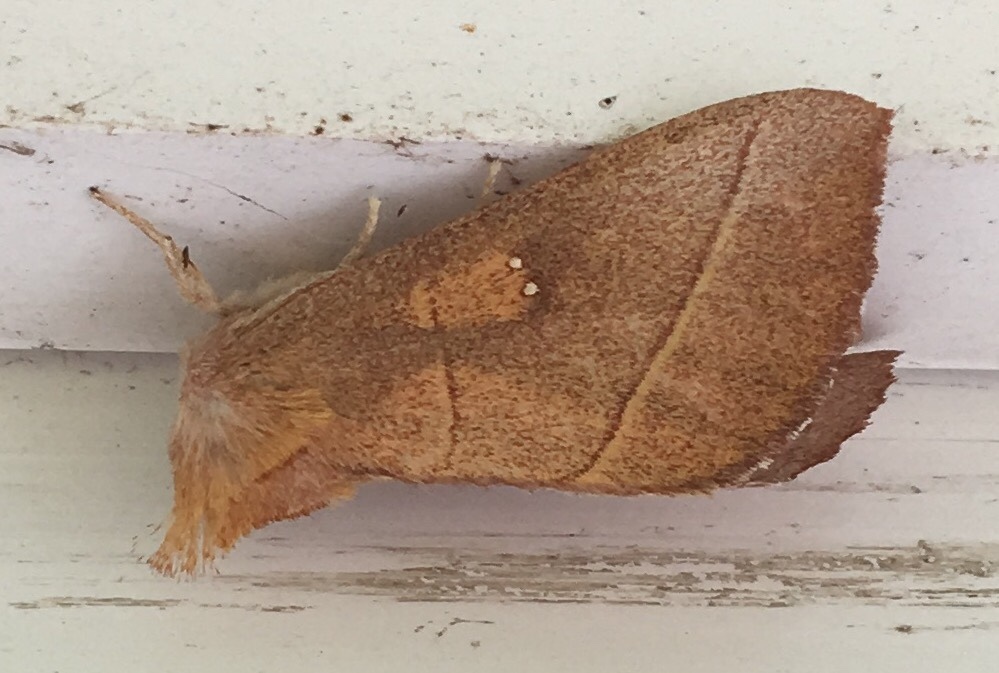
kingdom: Animalia
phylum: Arthropoda
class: Insecta
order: Lepidoptera
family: Notodontidae
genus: Nadata
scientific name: Nadata gibbosa
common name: White-dotted prominent
